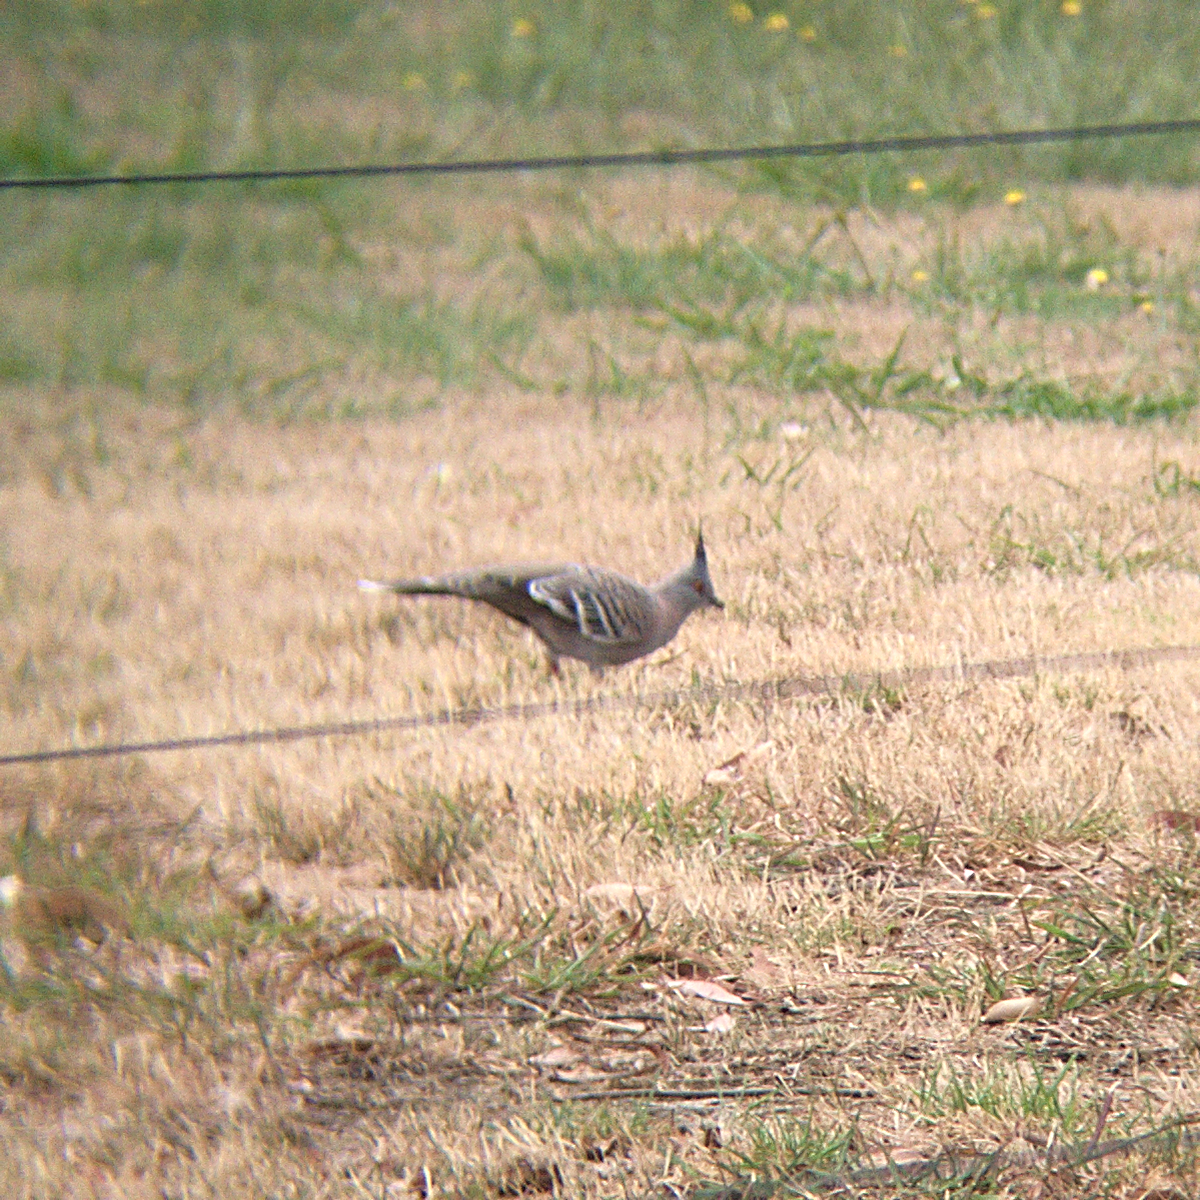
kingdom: Animalia
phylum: Chordata
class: Aves
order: Columbiformes
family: Columbidae
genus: Ocyphaps
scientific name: Ocyphaps lophotes
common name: Crested pigeon
